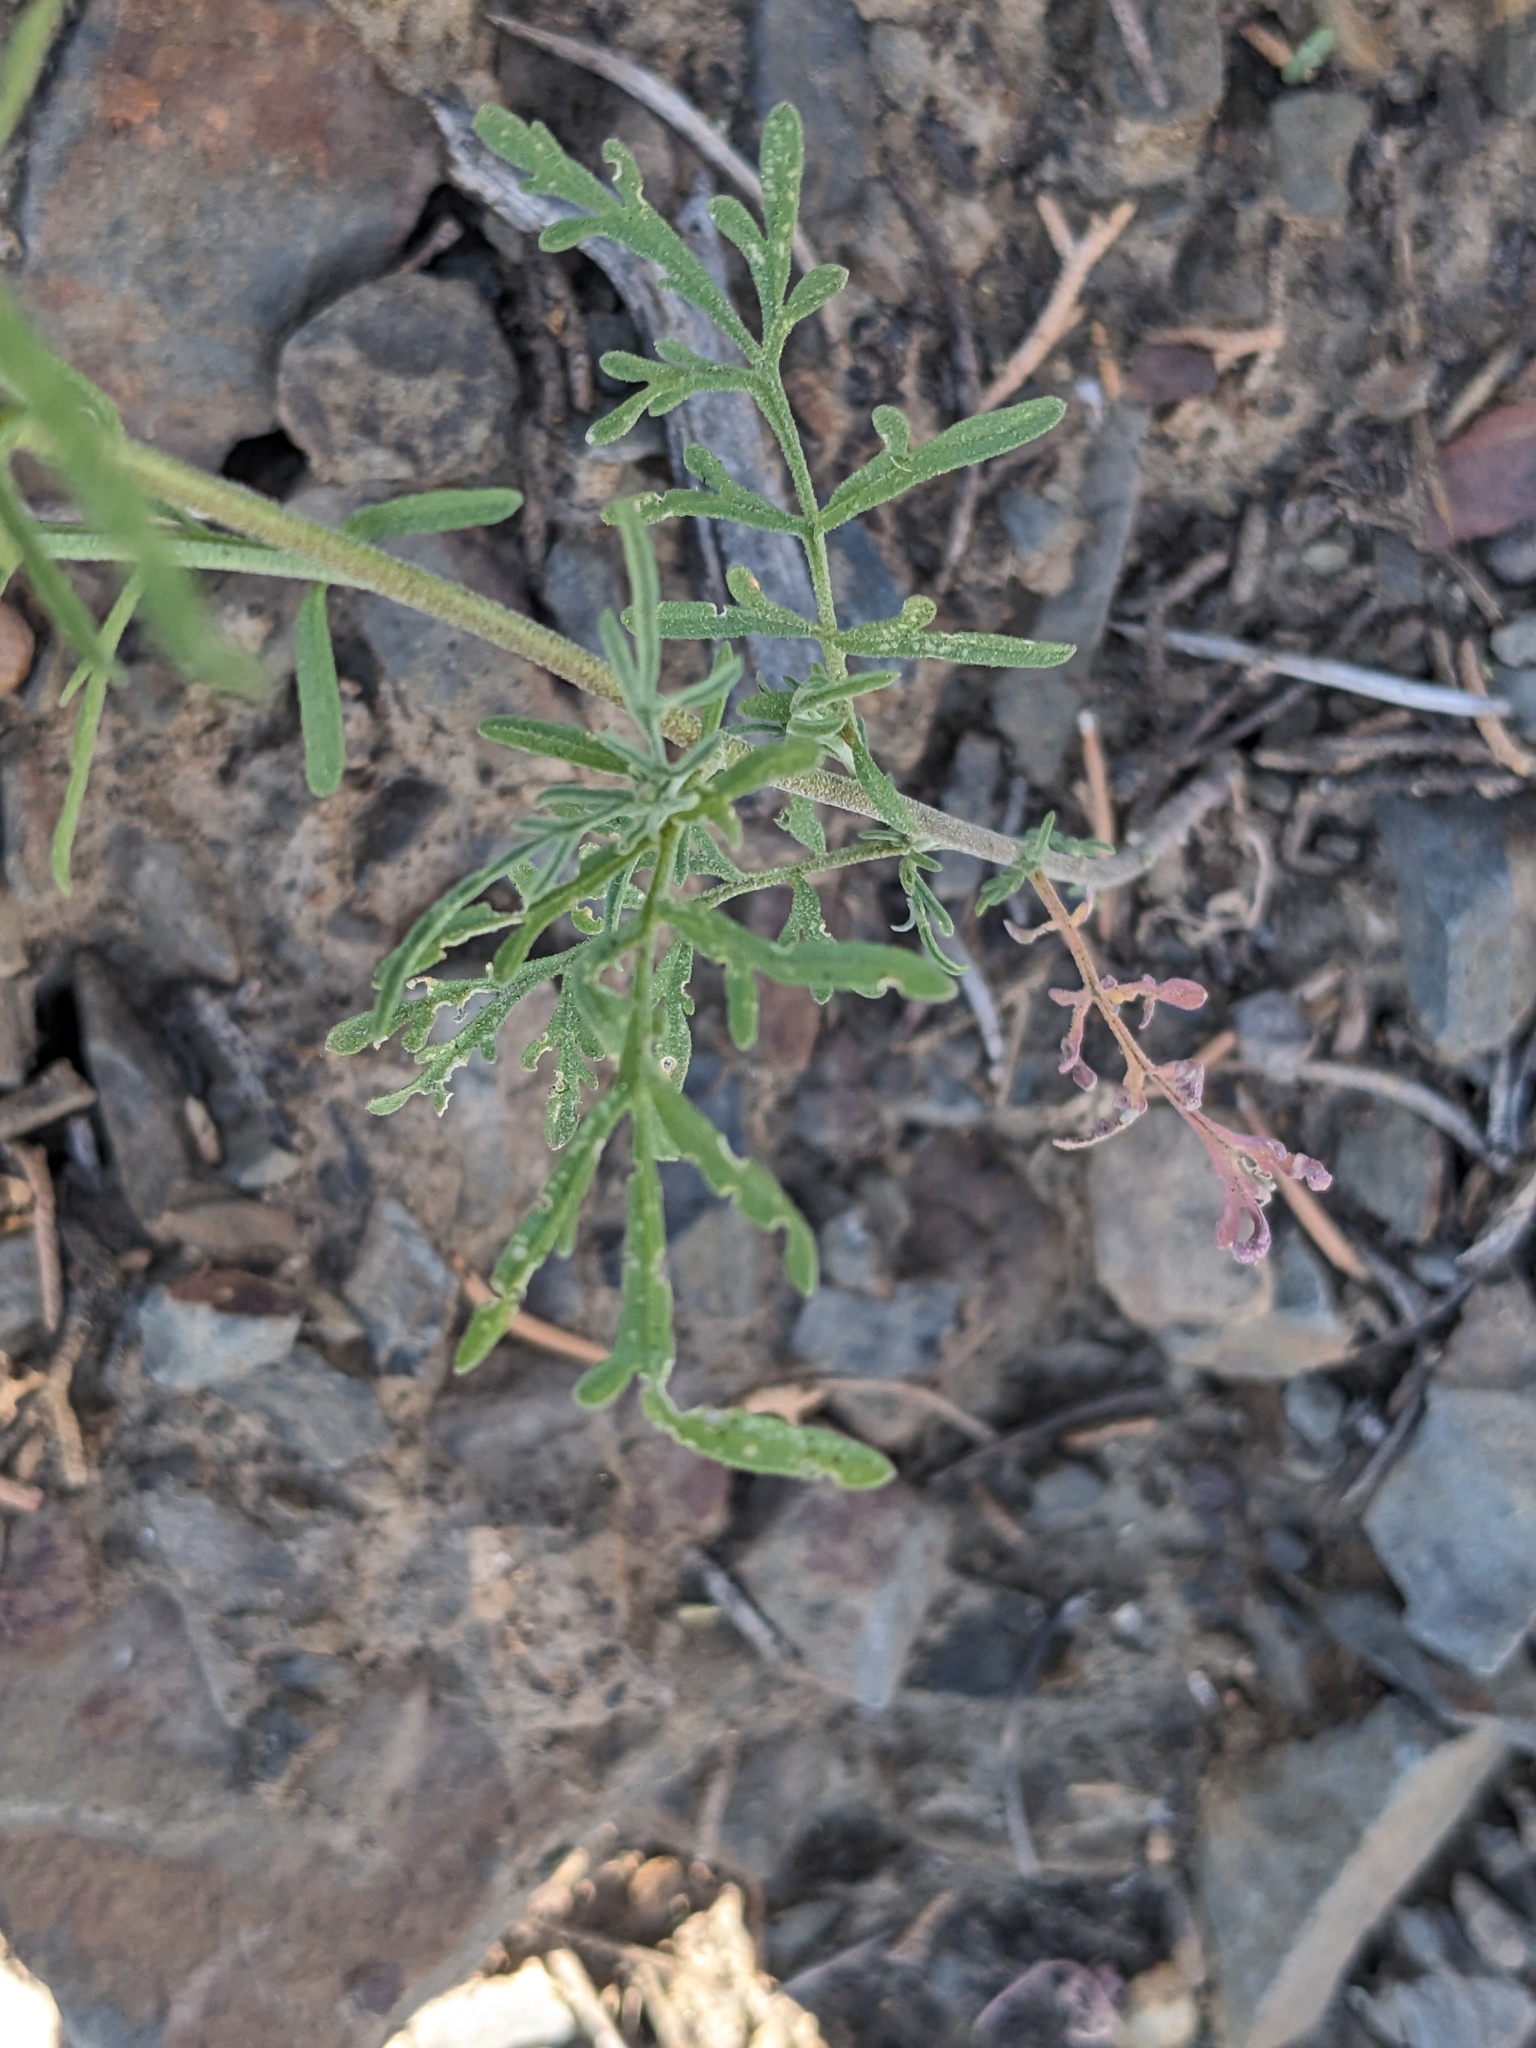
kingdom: Plantae
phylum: Tracheophyta
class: Magnoliopsida
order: Brassicales
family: Brassicaceae
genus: Descurainia
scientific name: Descurainia pinnata
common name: Western tansy mustard
